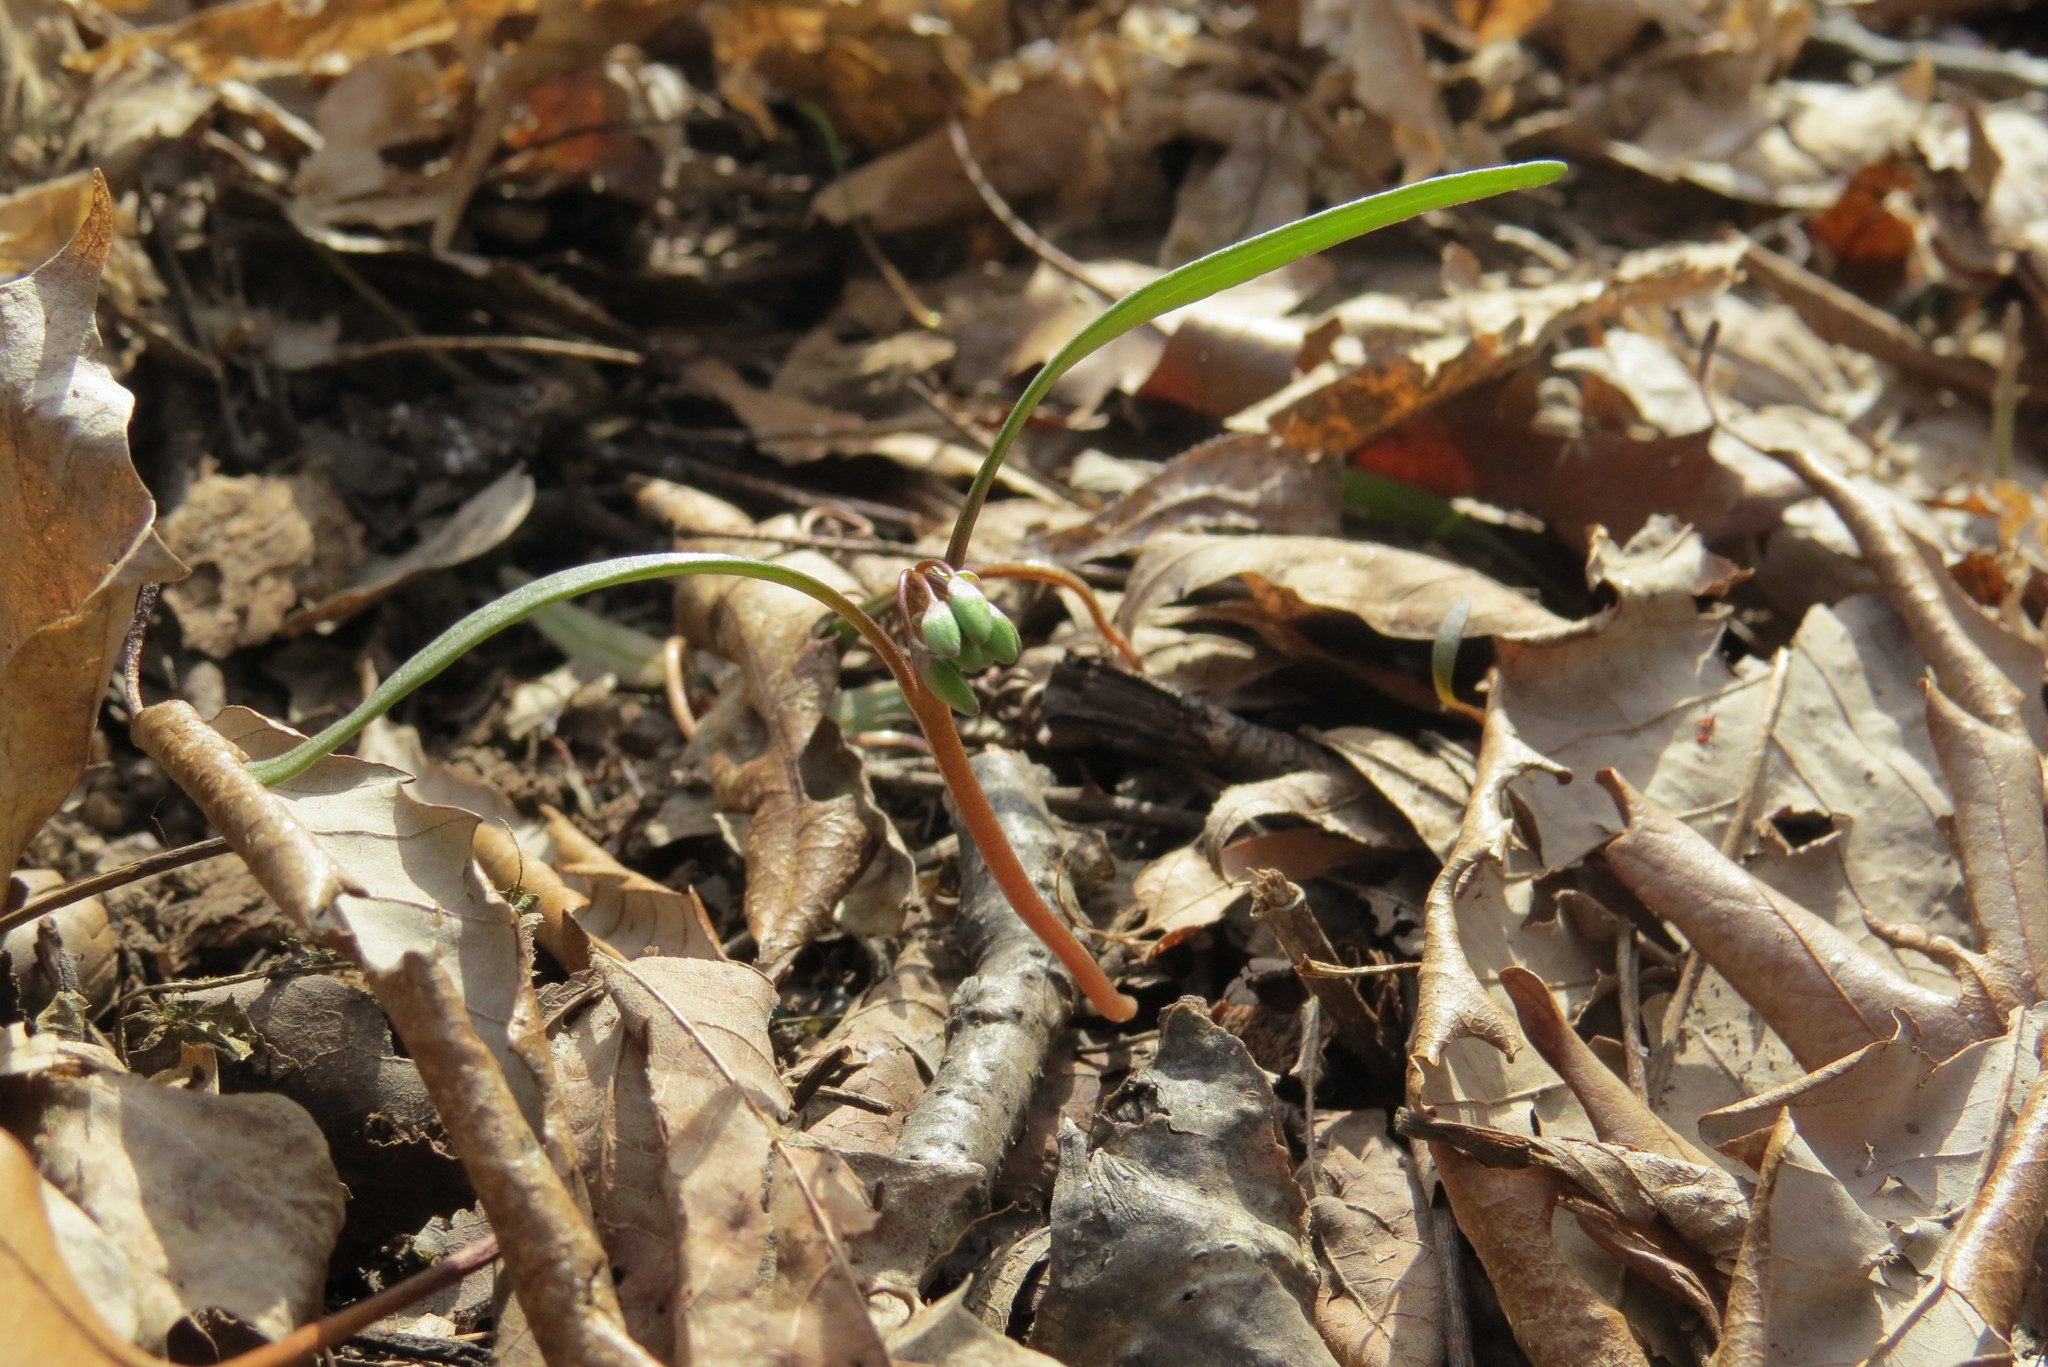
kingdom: Plantae
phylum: Tracheophyta
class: Magnoliopsida
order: Caryophyllales
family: Montiaceae
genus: Claytonia
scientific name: Claytonia virginica
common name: Virginia springbeauty
